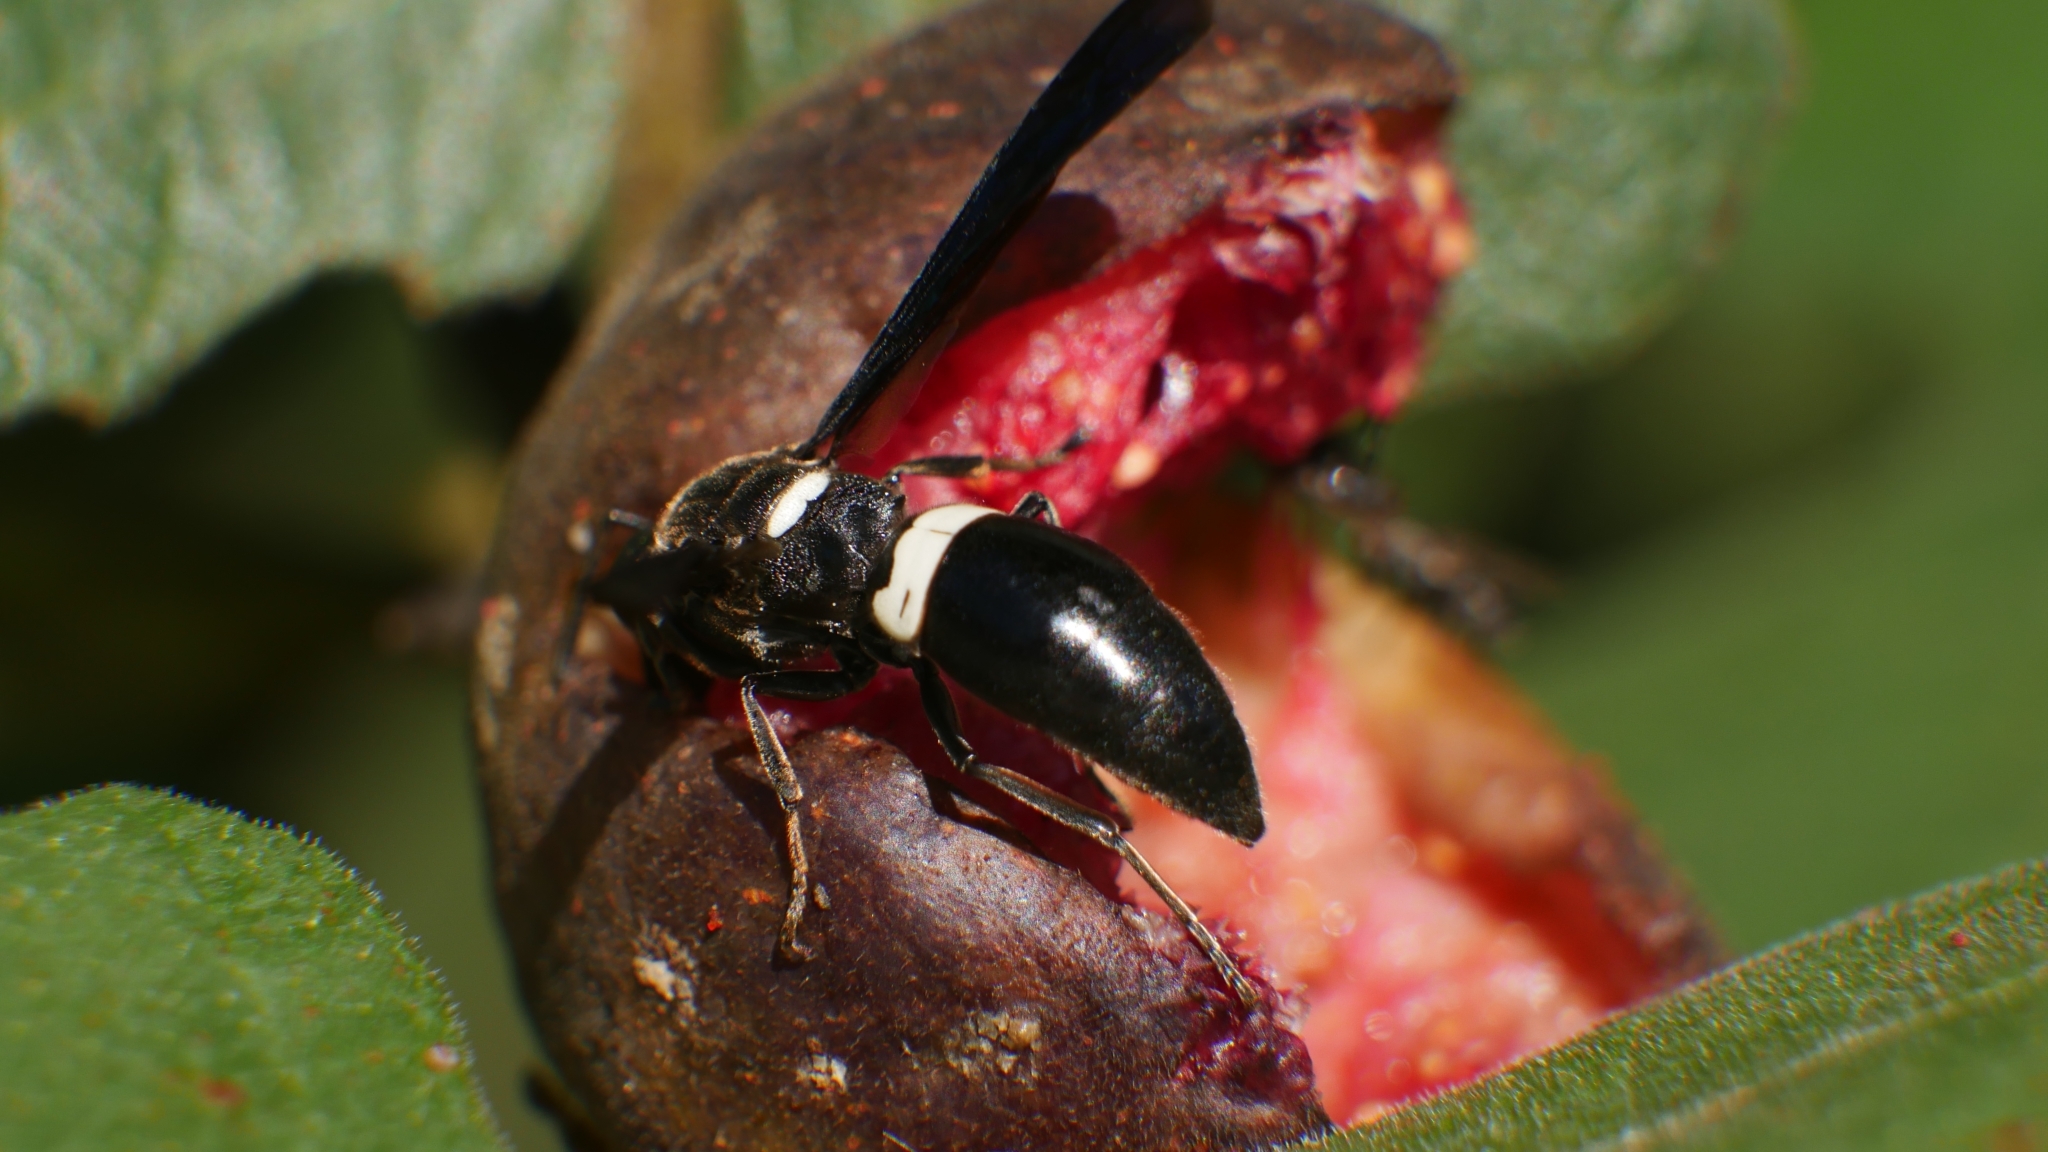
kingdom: Animalia
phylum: Arthropoda
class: Insecta
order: Hymenoptera
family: Eumenidae
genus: Monobia
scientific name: Monobia quadridens
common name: Four-toothed mason wasp
